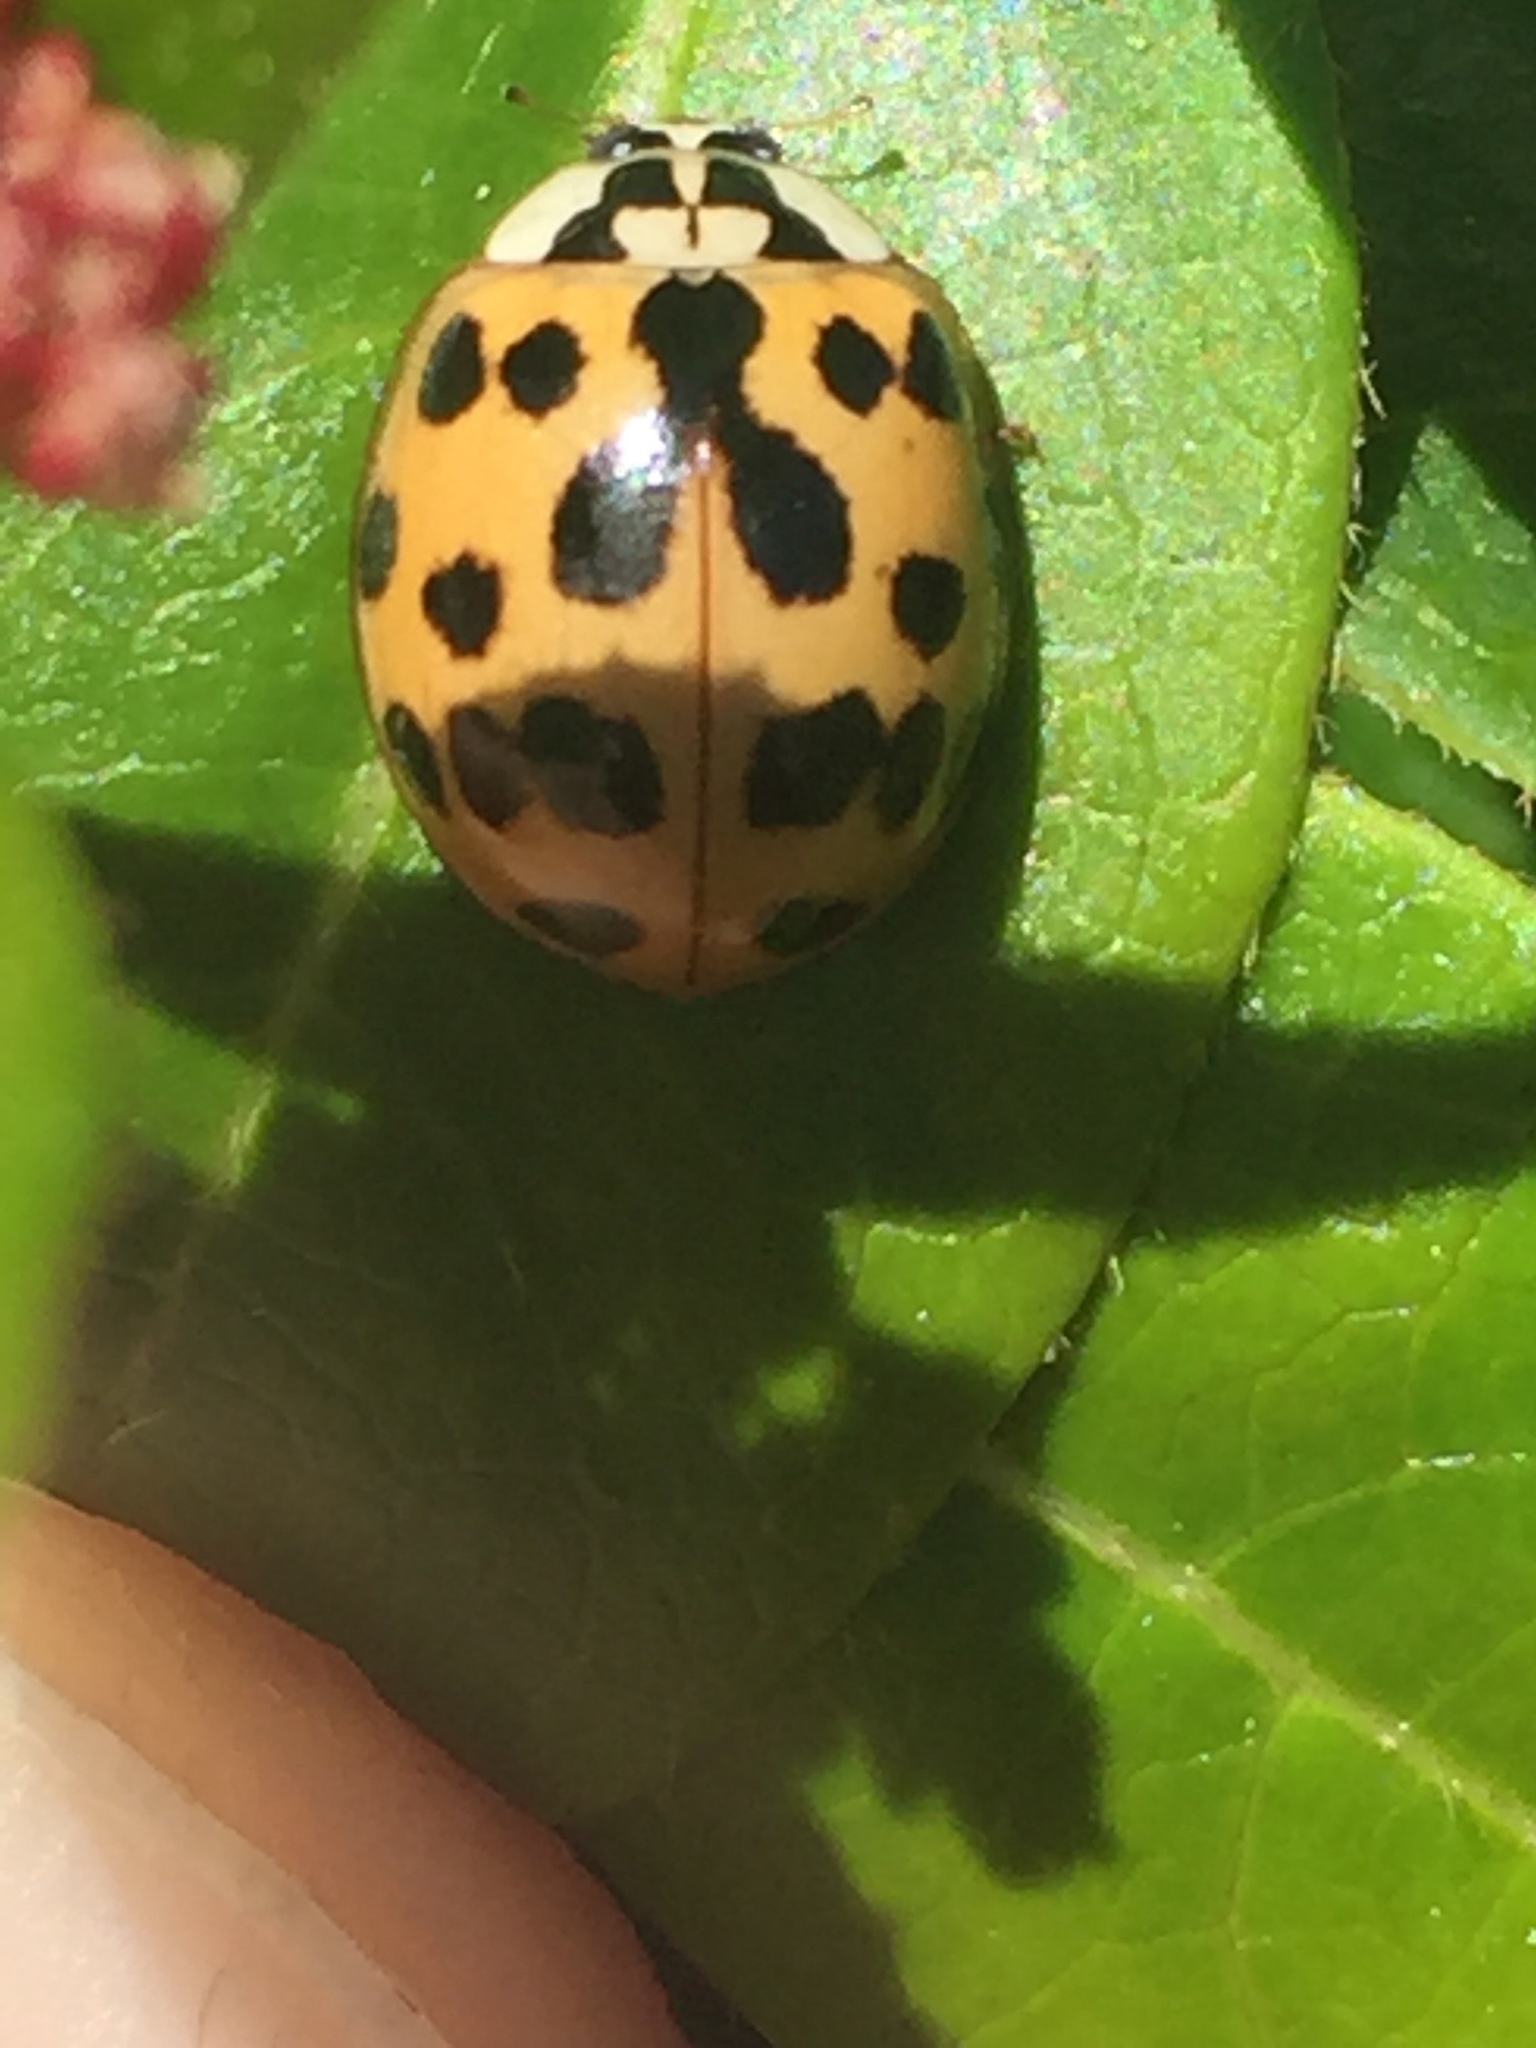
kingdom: Animalia
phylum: Arthropoda
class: Insecta
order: Coleoptera
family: Coccinellidae
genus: Harmonia
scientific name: Harmonia axyridis
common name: Harlequin ladybird
